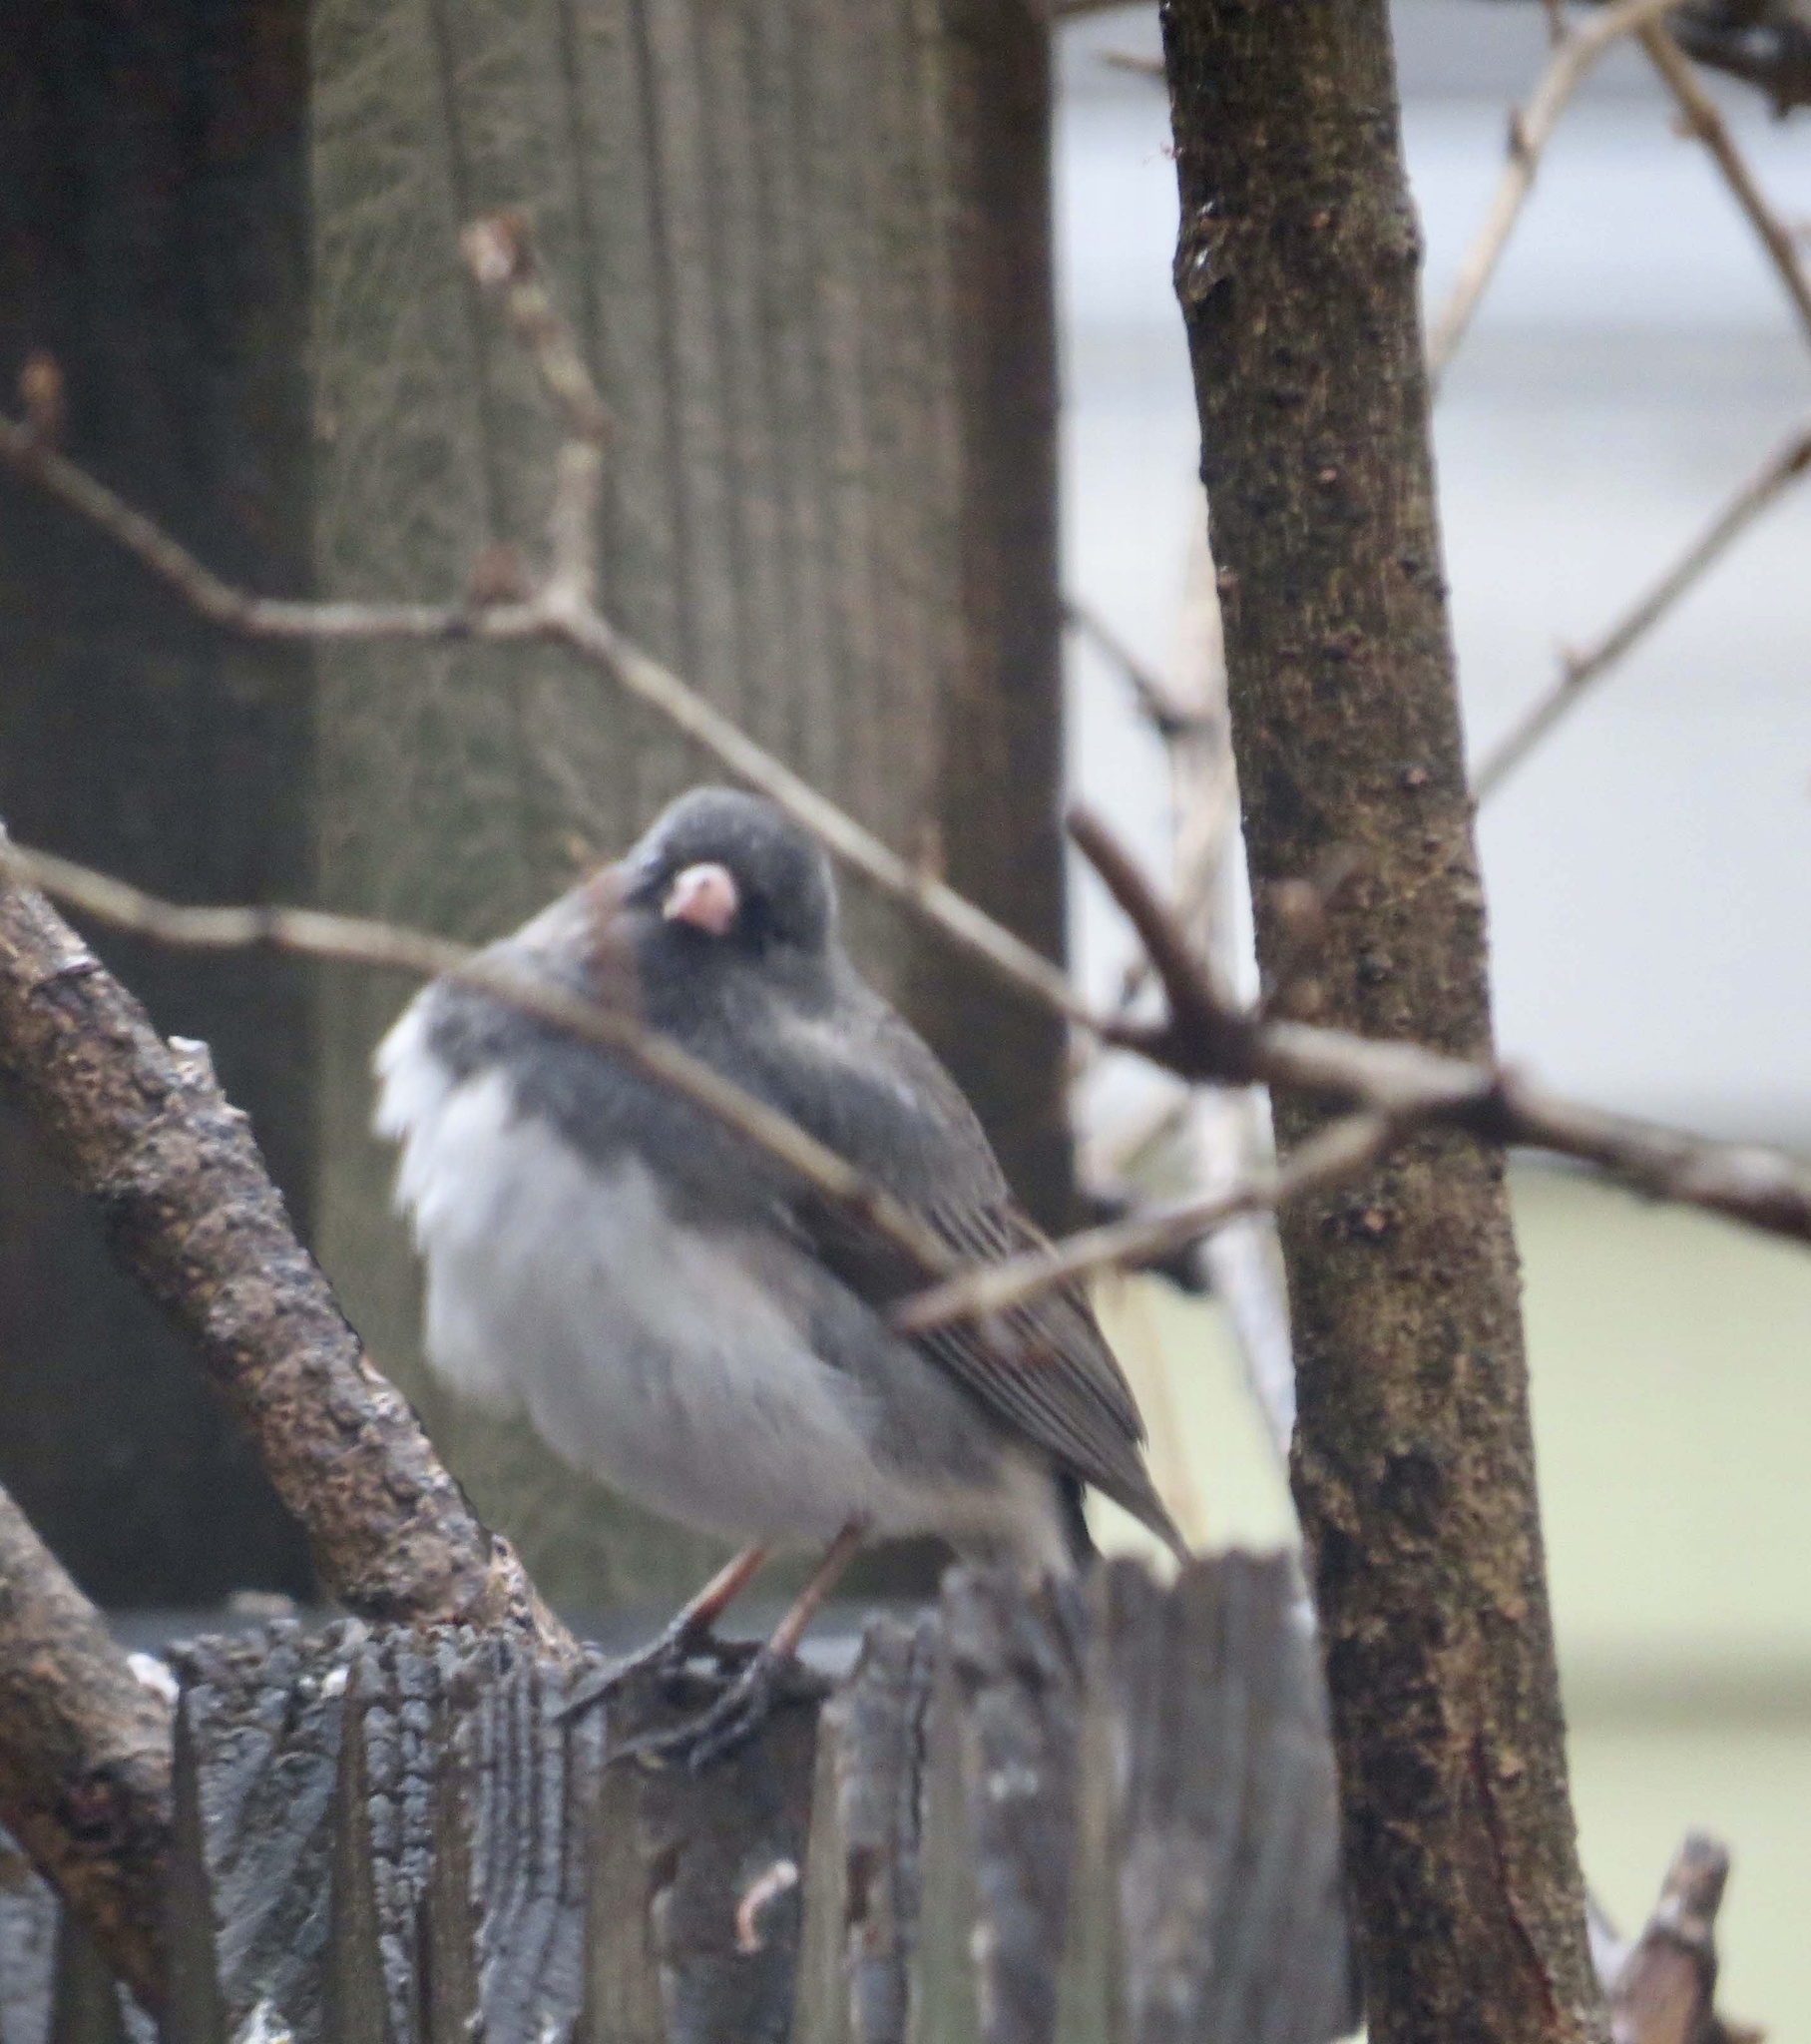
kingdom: Animalia
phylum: Chordata
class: Aves
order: Passeriformes
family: Passerellidae
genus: Junco
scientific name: Junco hyemalis
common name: Dark-eyed junco
